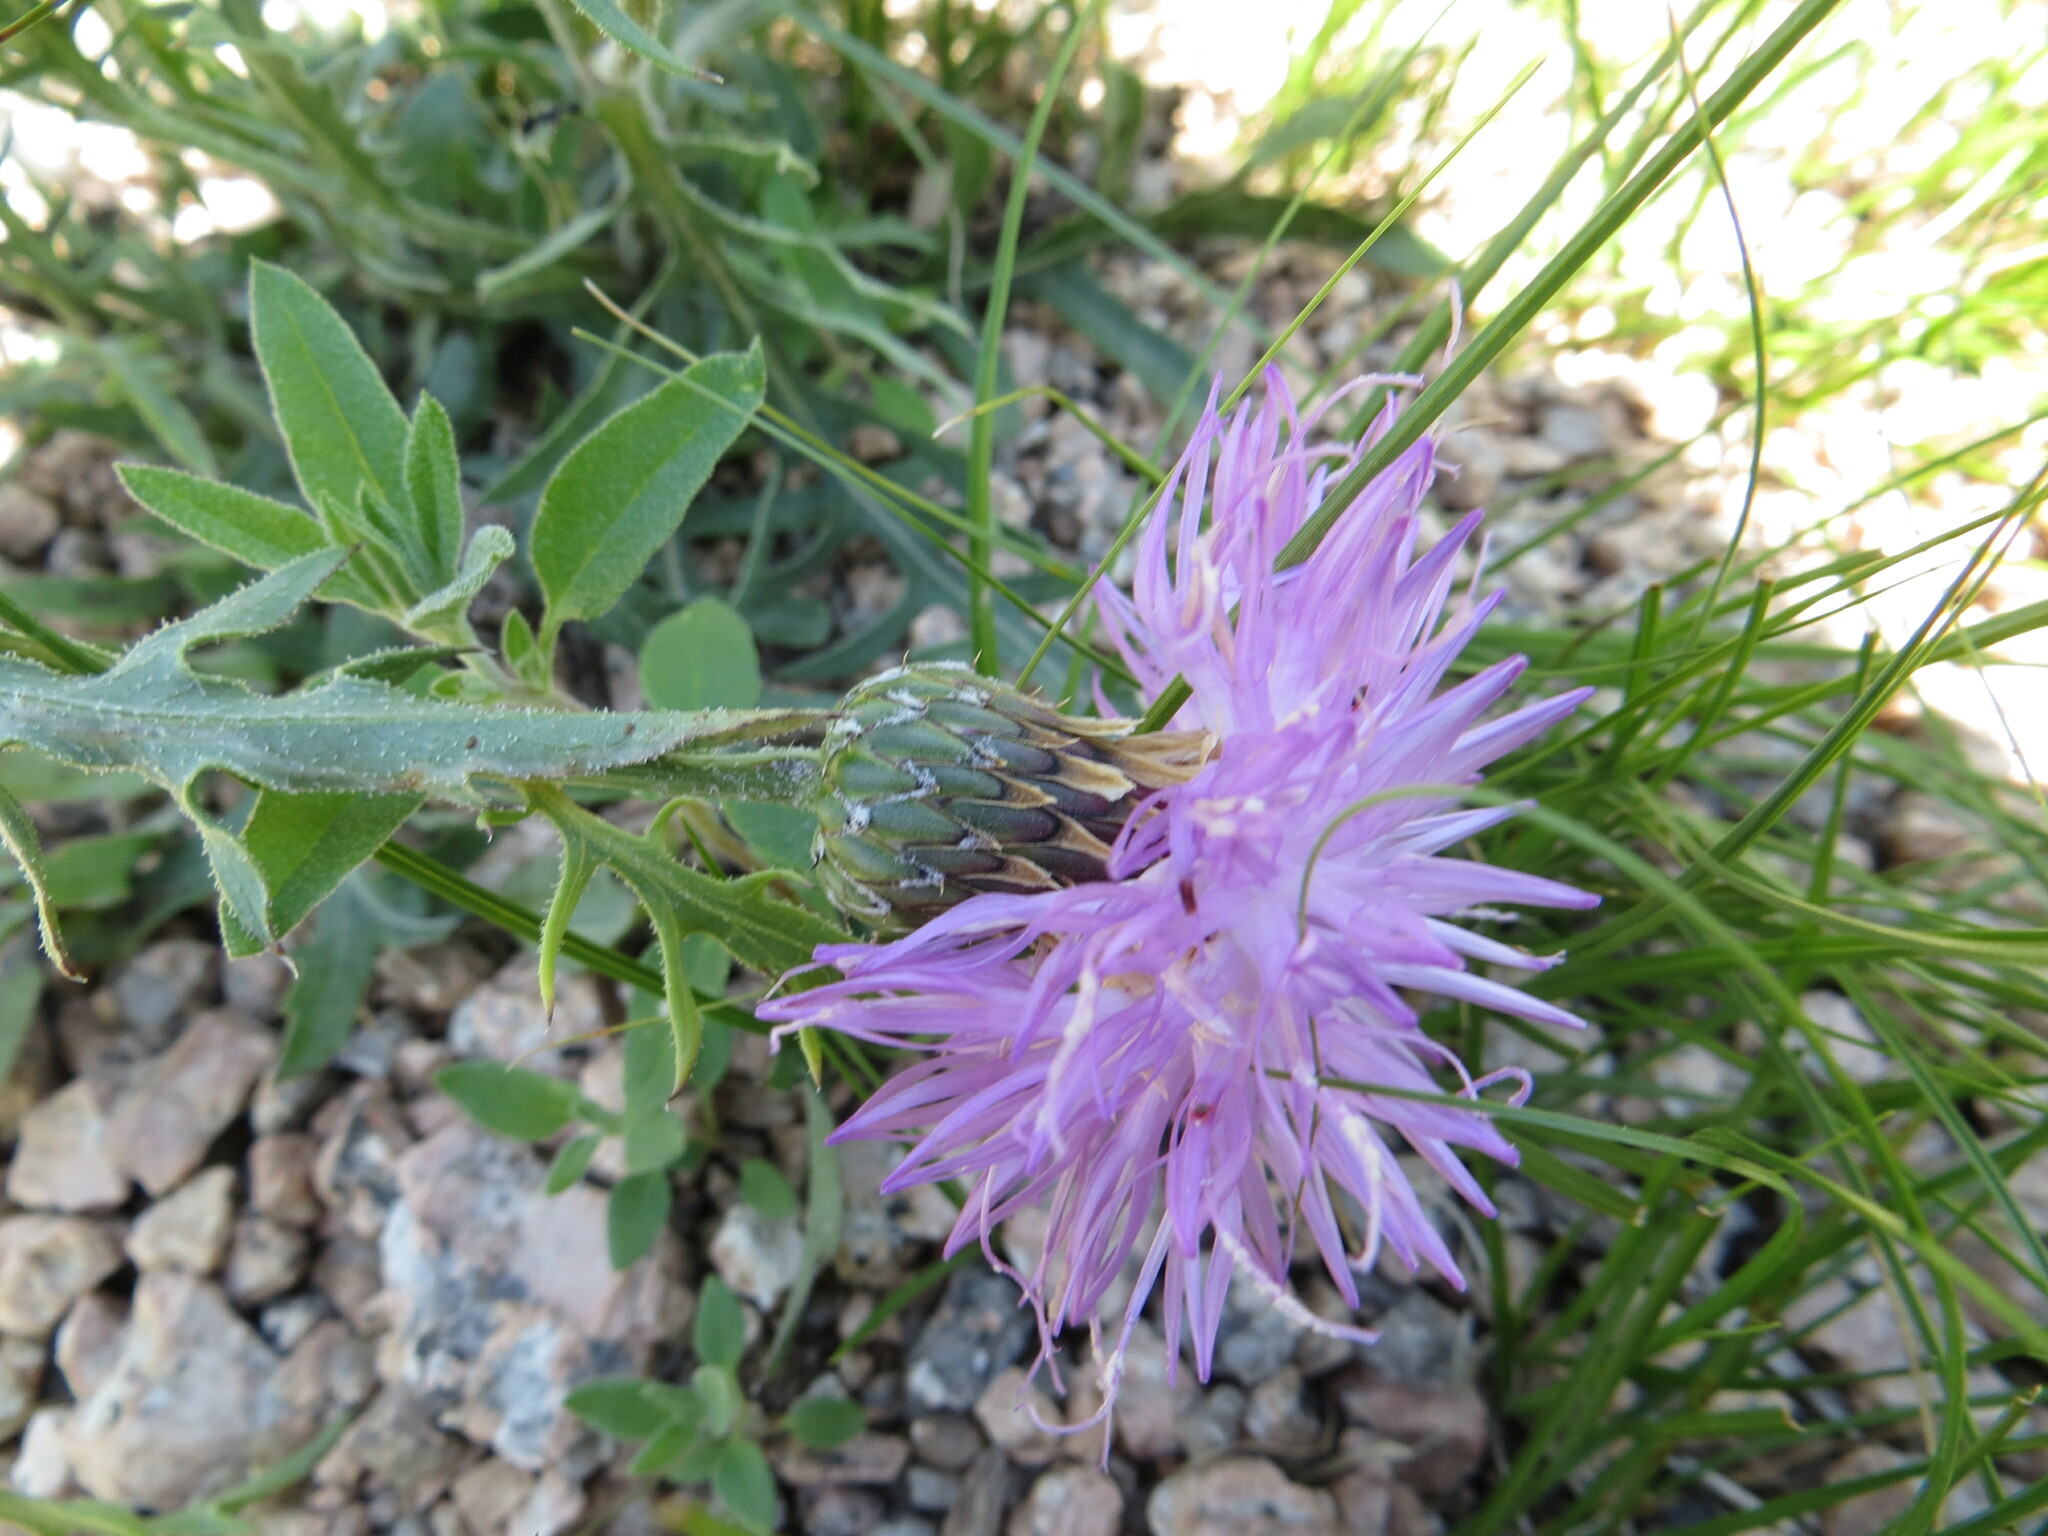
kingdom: Plantae
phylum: Tracheophyta
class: Magnoliopsida
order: Asterales
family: Asteraceae
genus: Klasea
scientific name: Klasea centauroides
